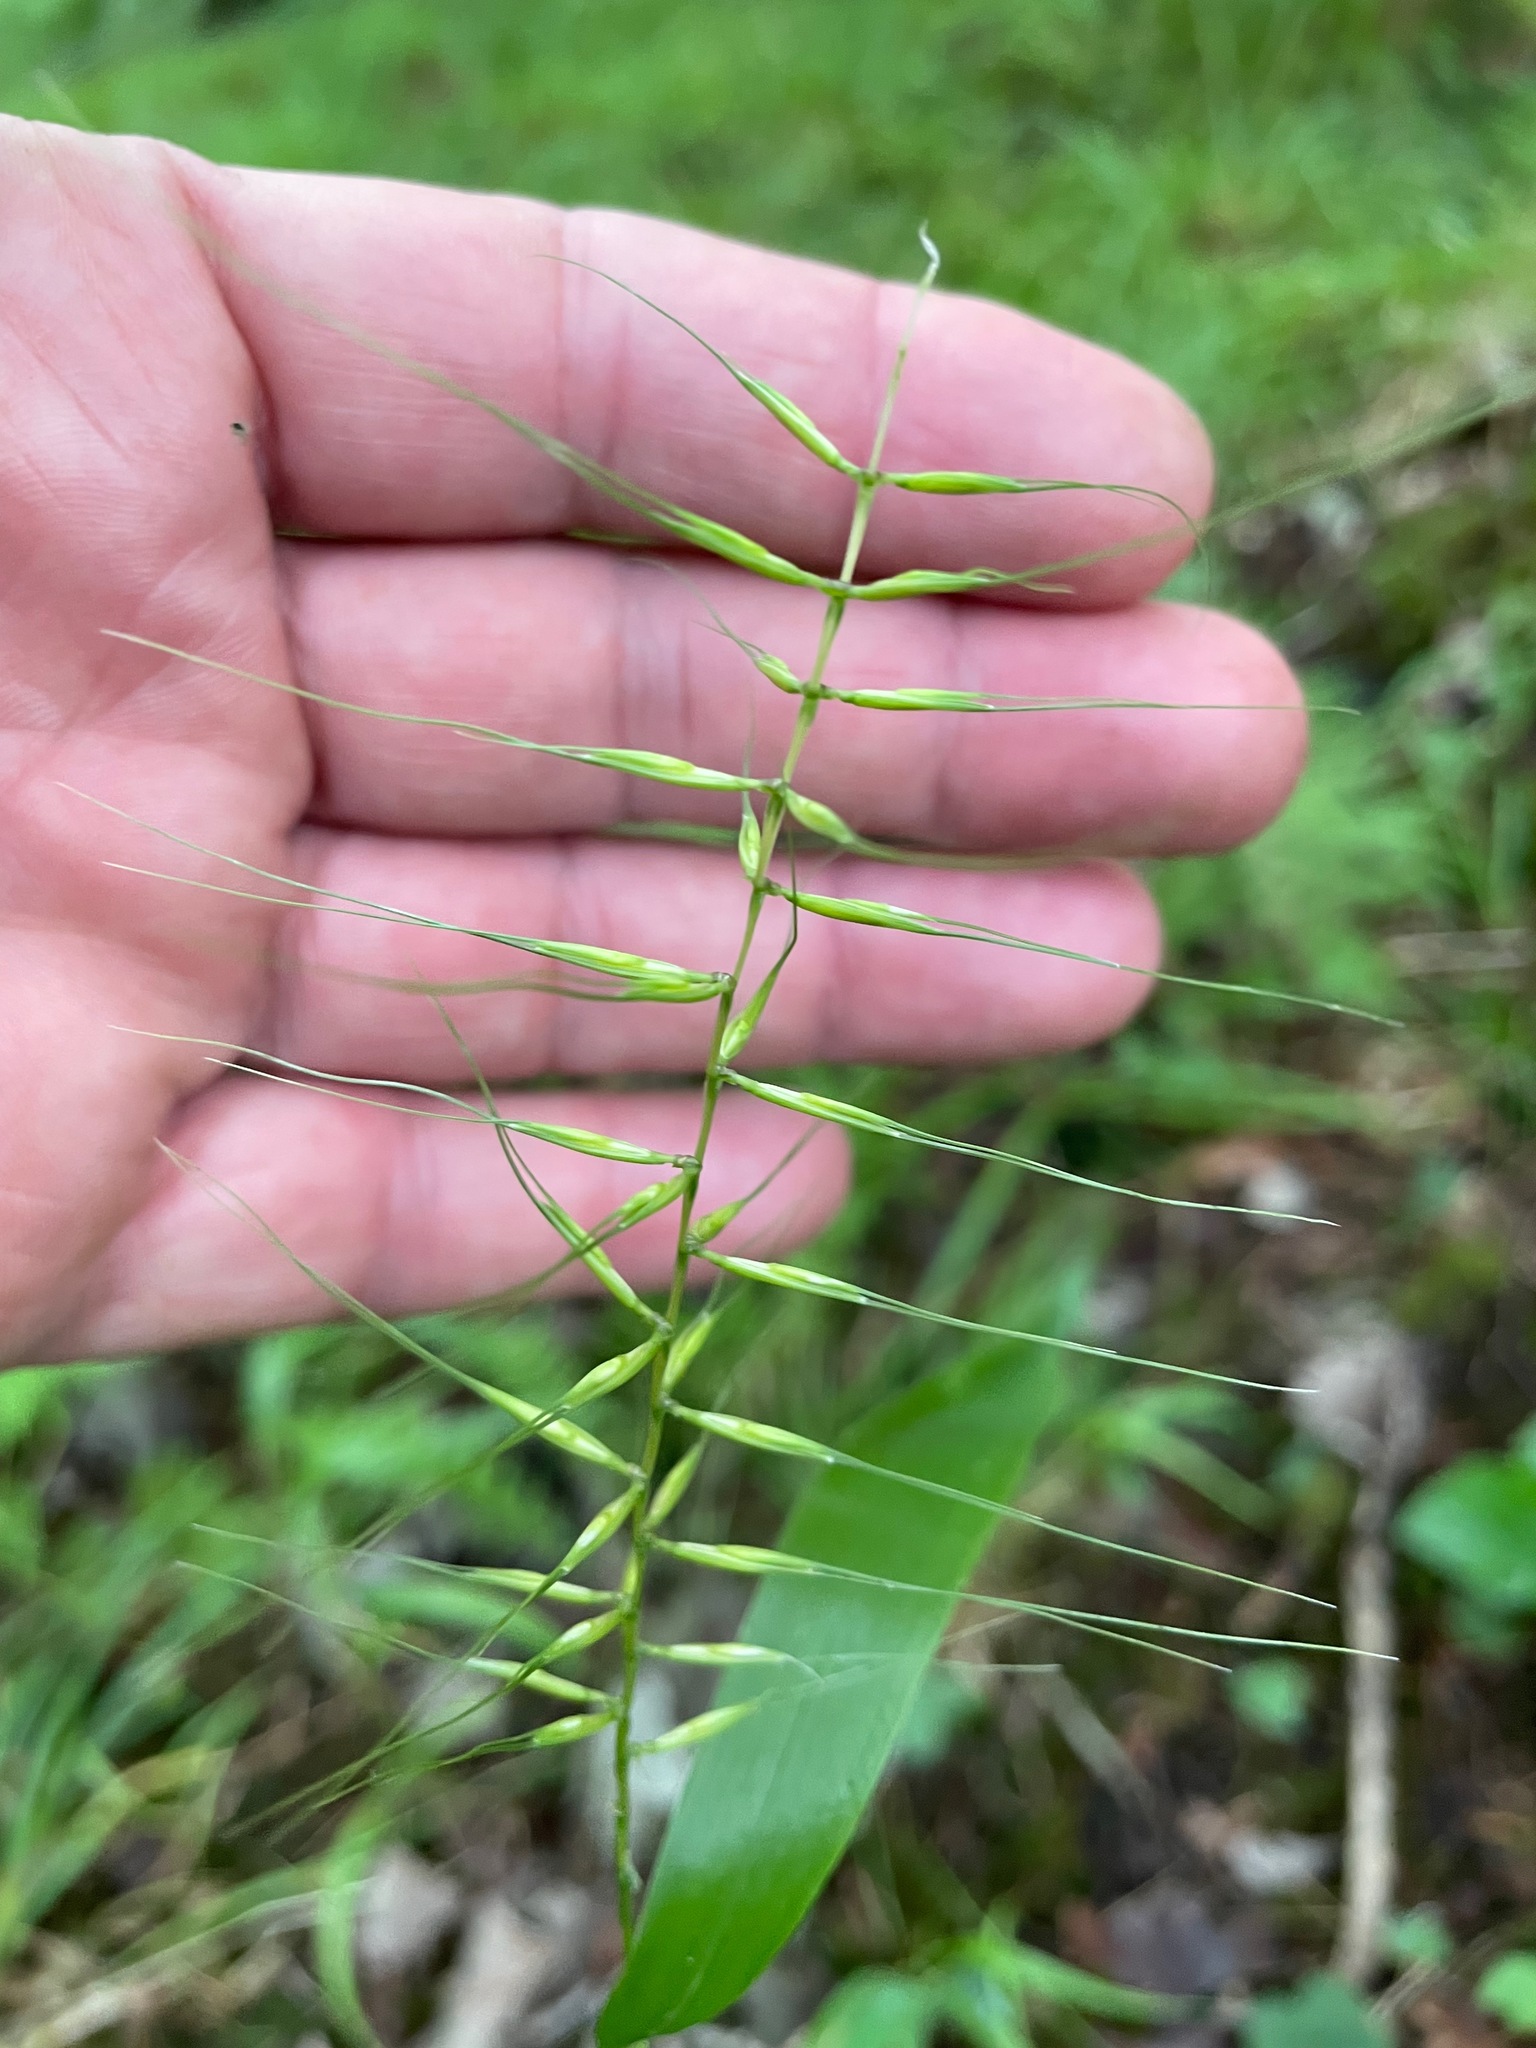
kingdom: Plantae
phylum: Tracheophyta
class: Liliopsida
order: Poales
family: Poaceae
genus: Elymus
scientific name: Elymus hystrix
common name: Bottlebrush grass
